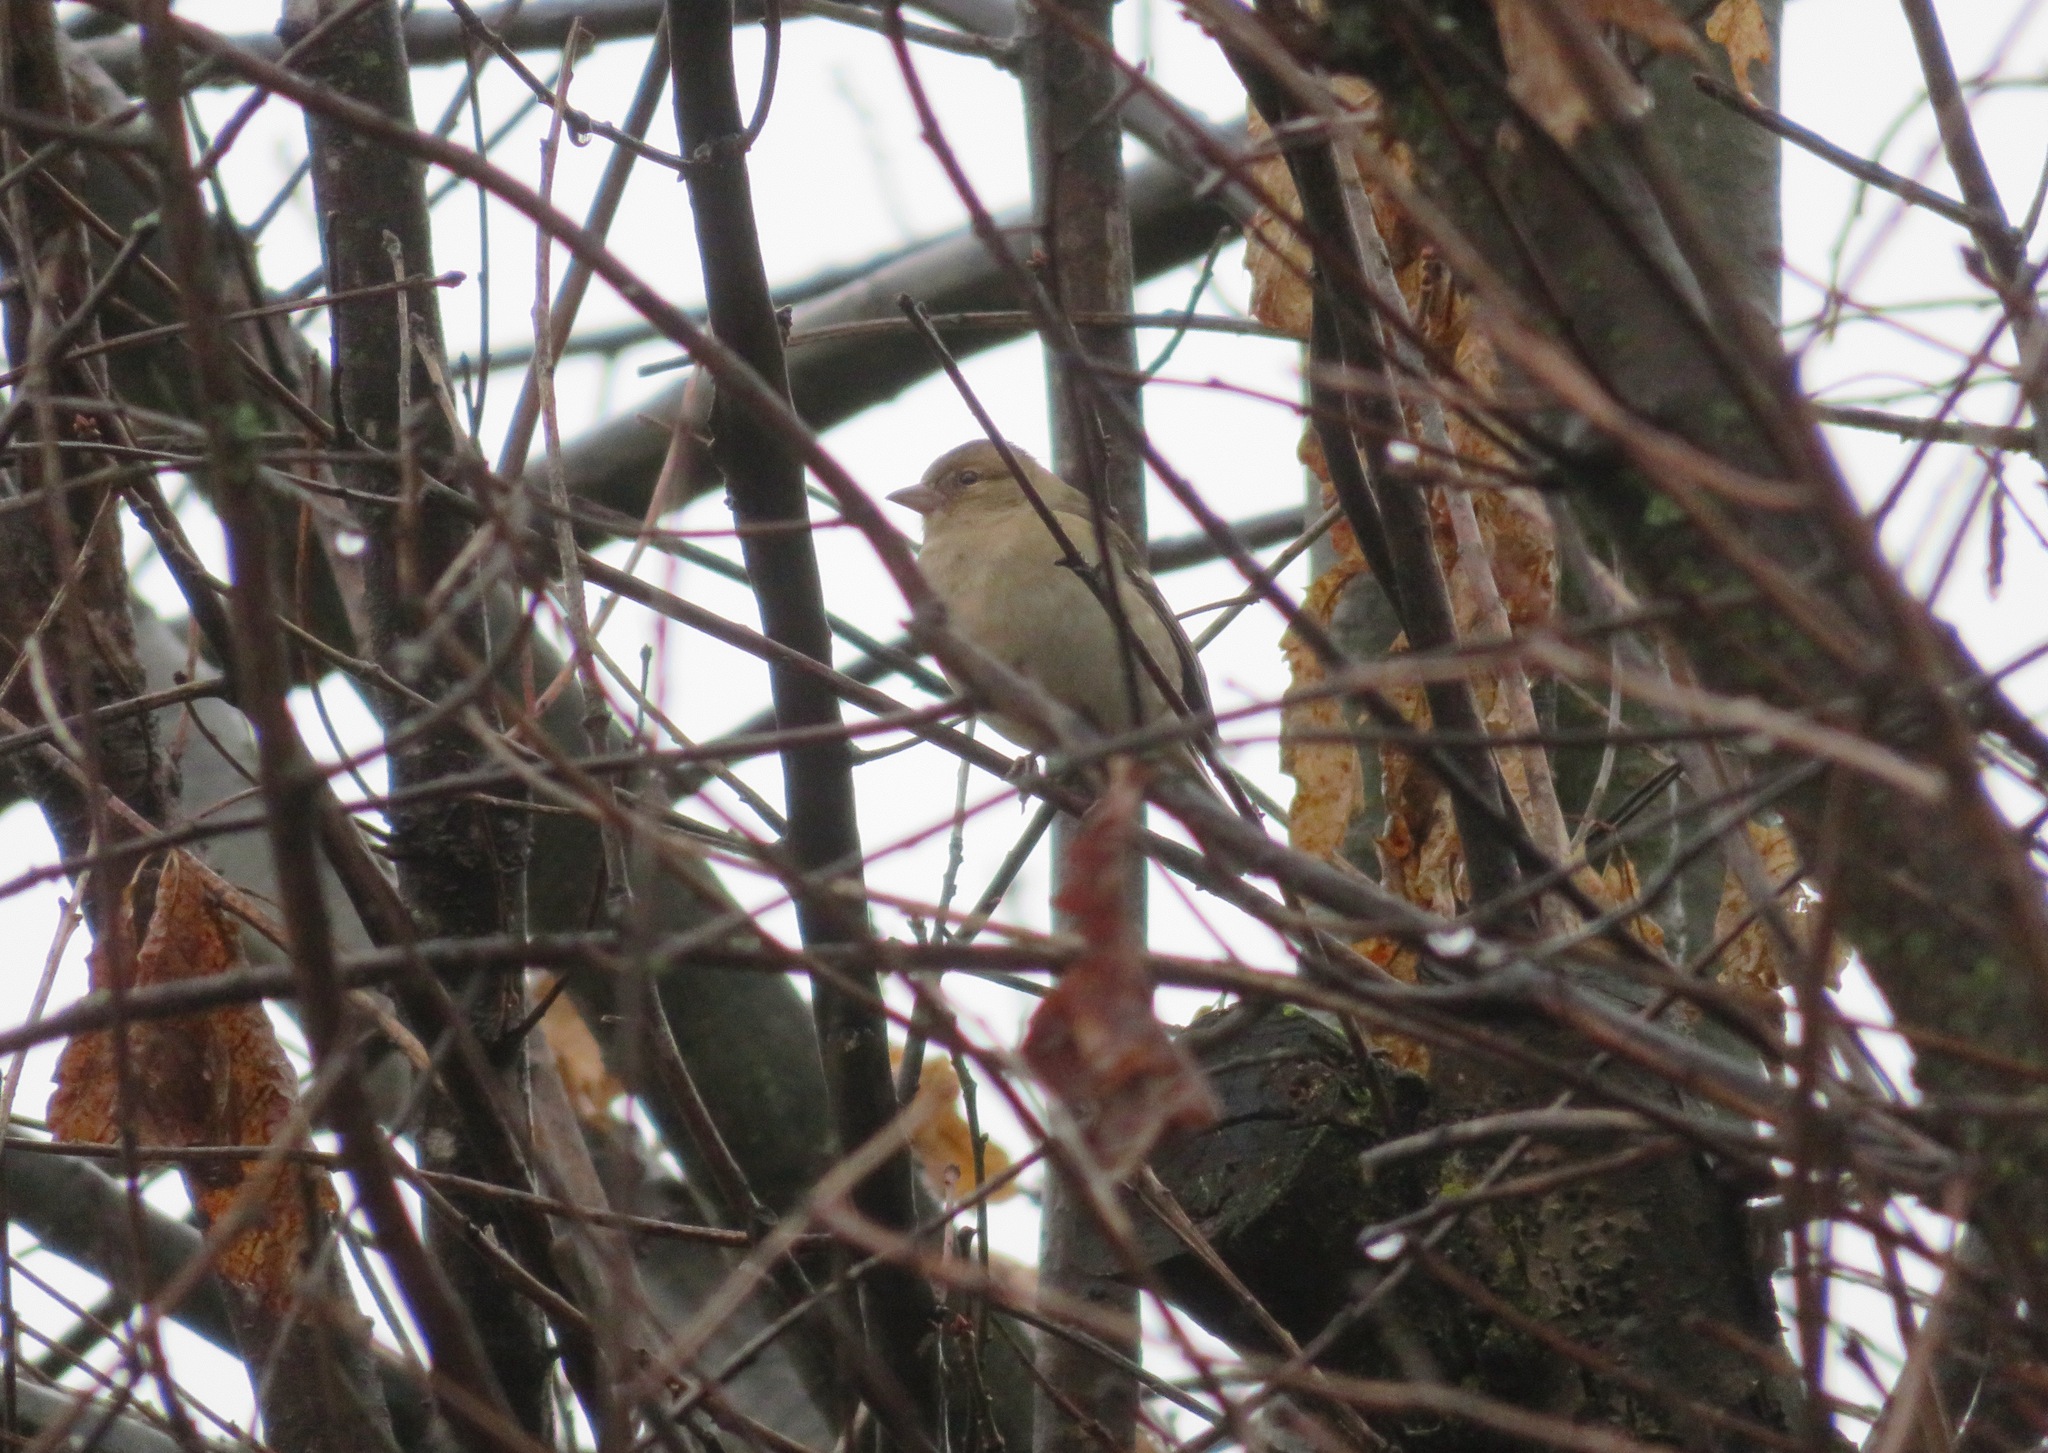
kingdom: Animalia
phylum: Chordata
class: Aves
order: Passeriformes
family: Fringillidae
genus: Fringilla
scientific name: Fringilla coelebs
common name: Common chaffinch
